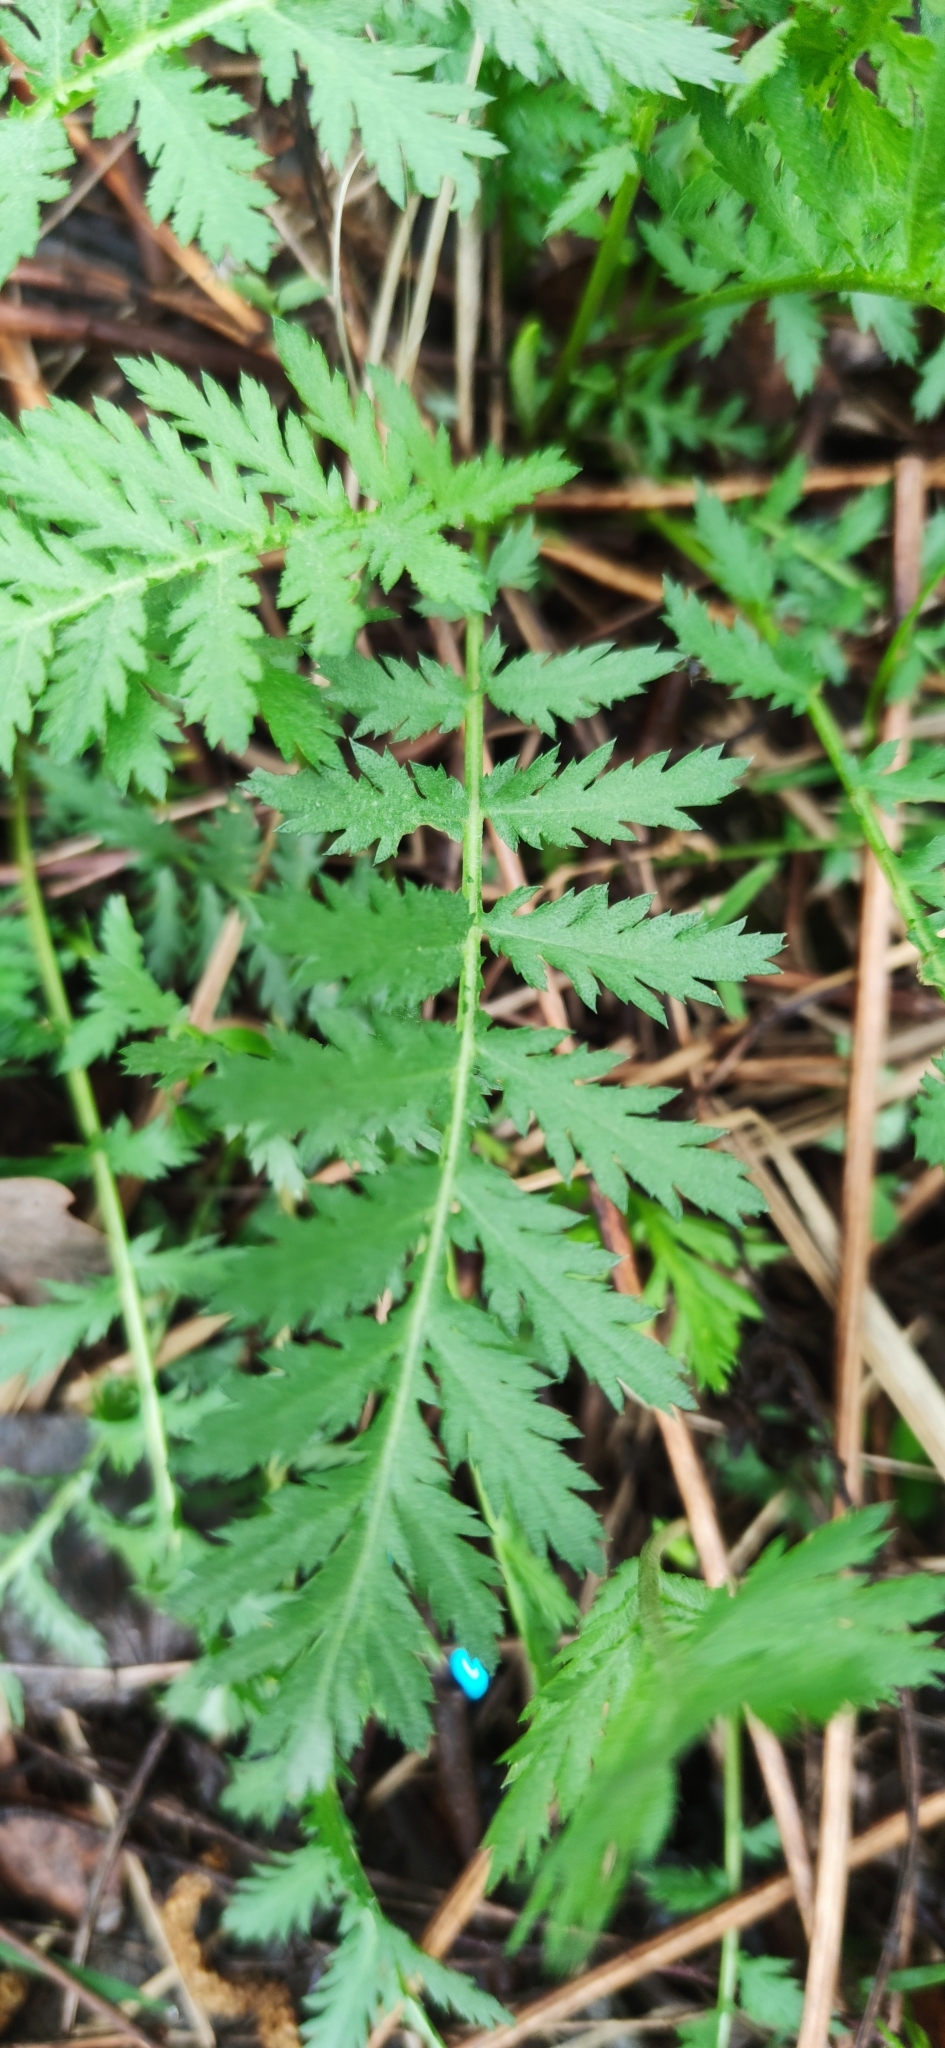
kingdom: Plantae
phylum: Tracheophyta
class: Magnoliopsida
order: Asterales
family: Asteraceae
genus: Tanacetum
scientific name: Tanacetum vulgare
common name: Common tansy
